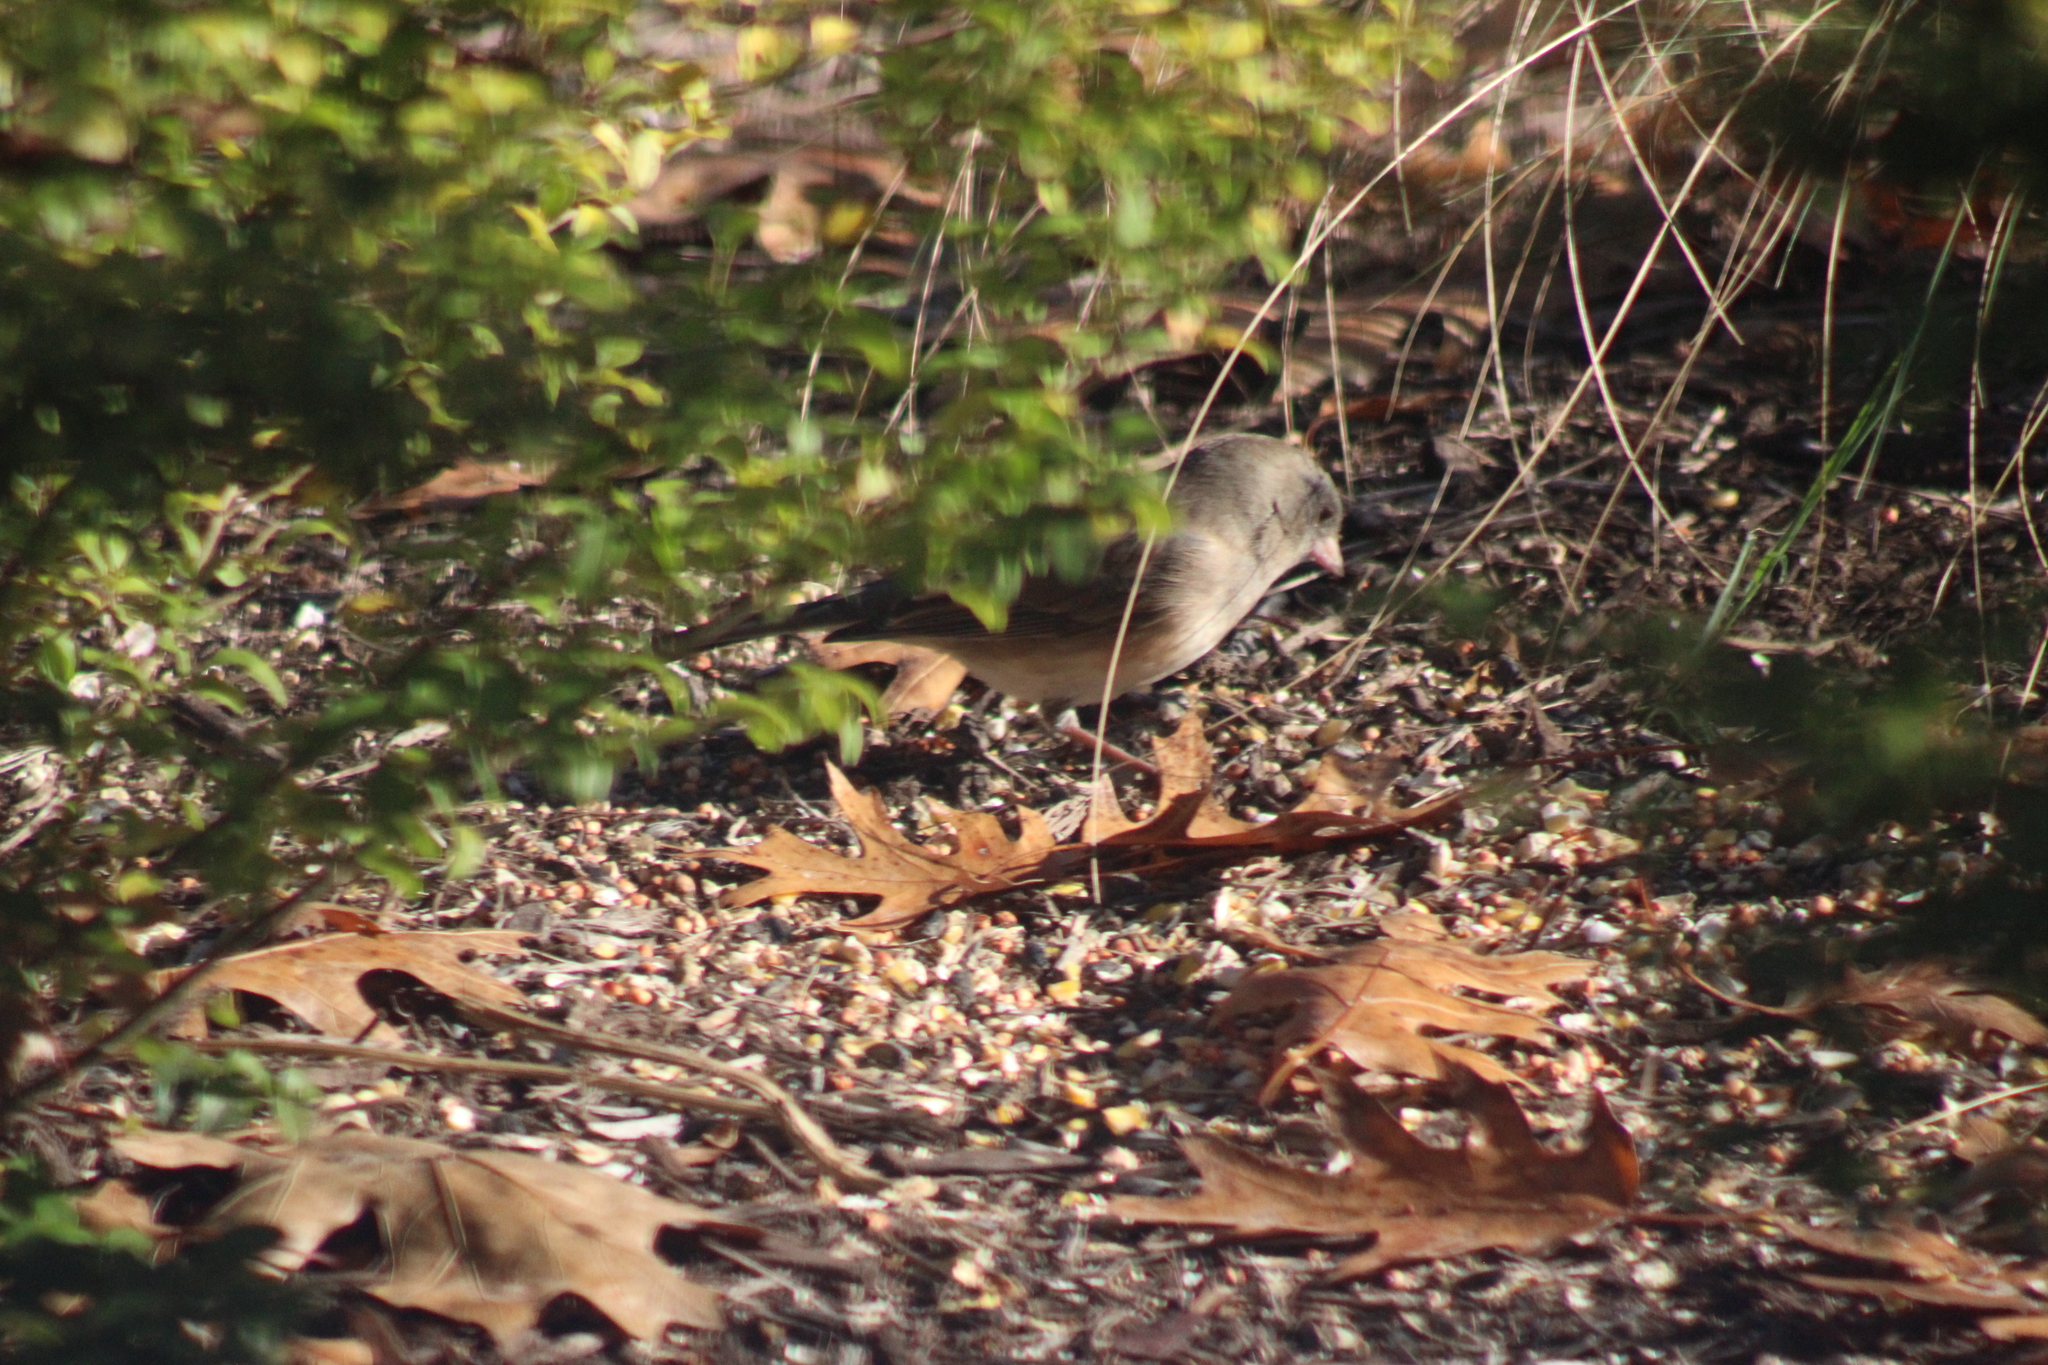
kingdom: Animalia
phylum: Chordata
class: Aves
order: Passeriformes
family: Passerellidae
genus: Junco
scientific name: Junco hyemalis
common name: Dark-eyed junco
